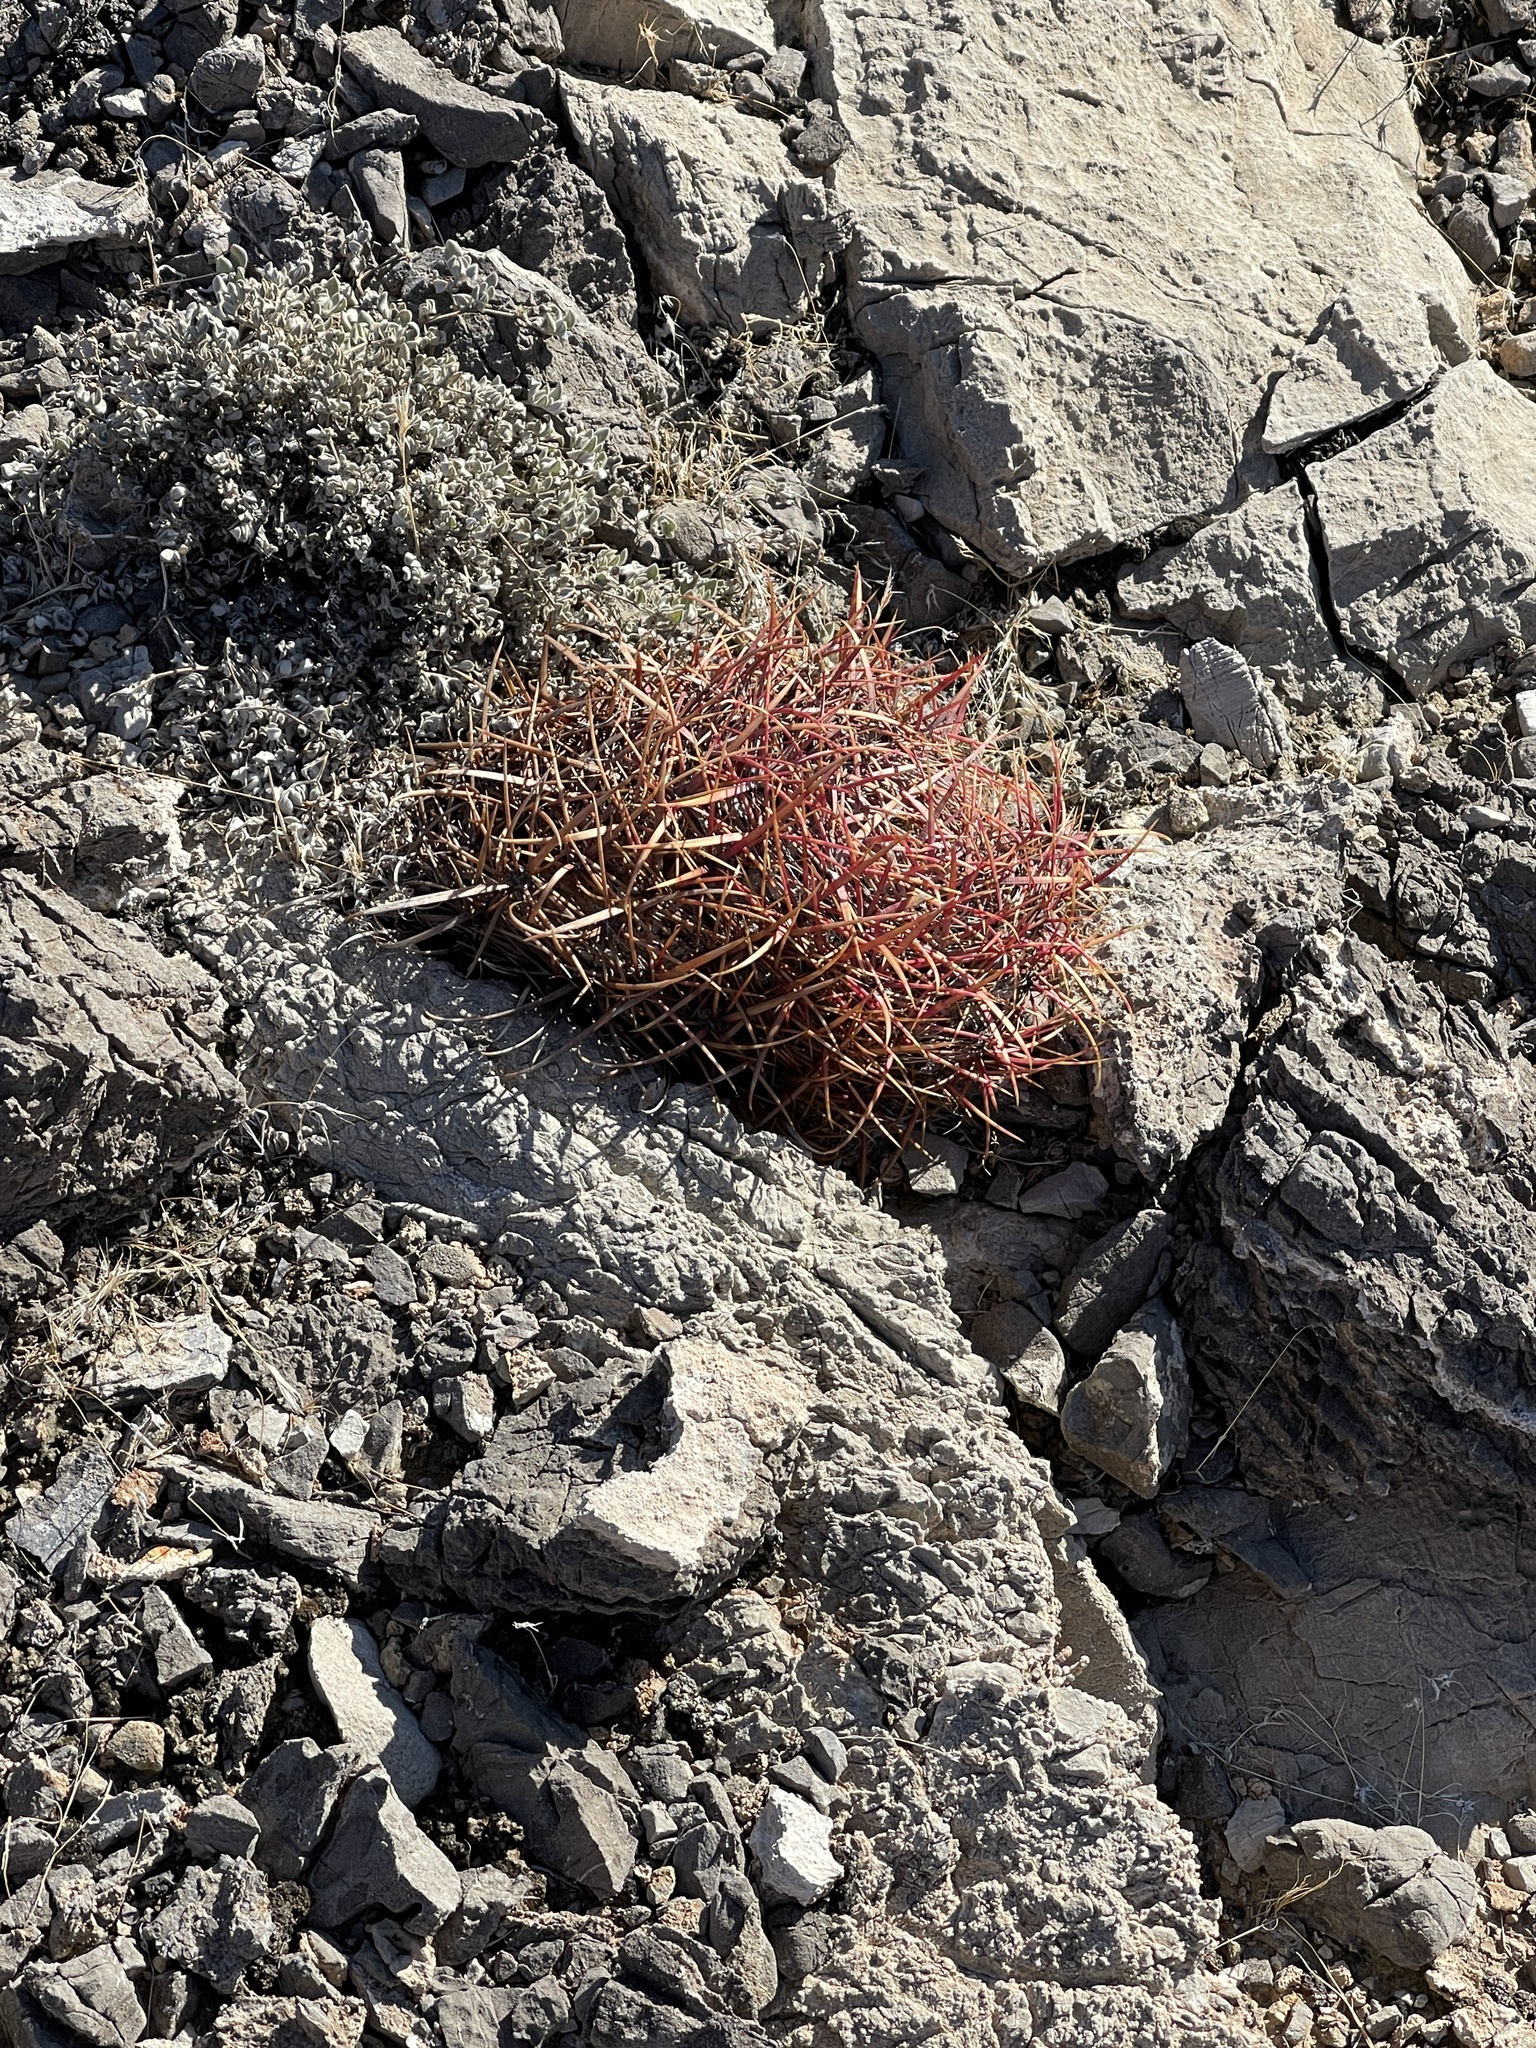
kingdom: Plantae
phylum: Tracheophyta
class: Magnoliopsida
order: Caryophyllales
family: Cactaceae
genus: Ferocactus
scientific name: Ferocactus cylindraceus
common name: California barrel cactus
